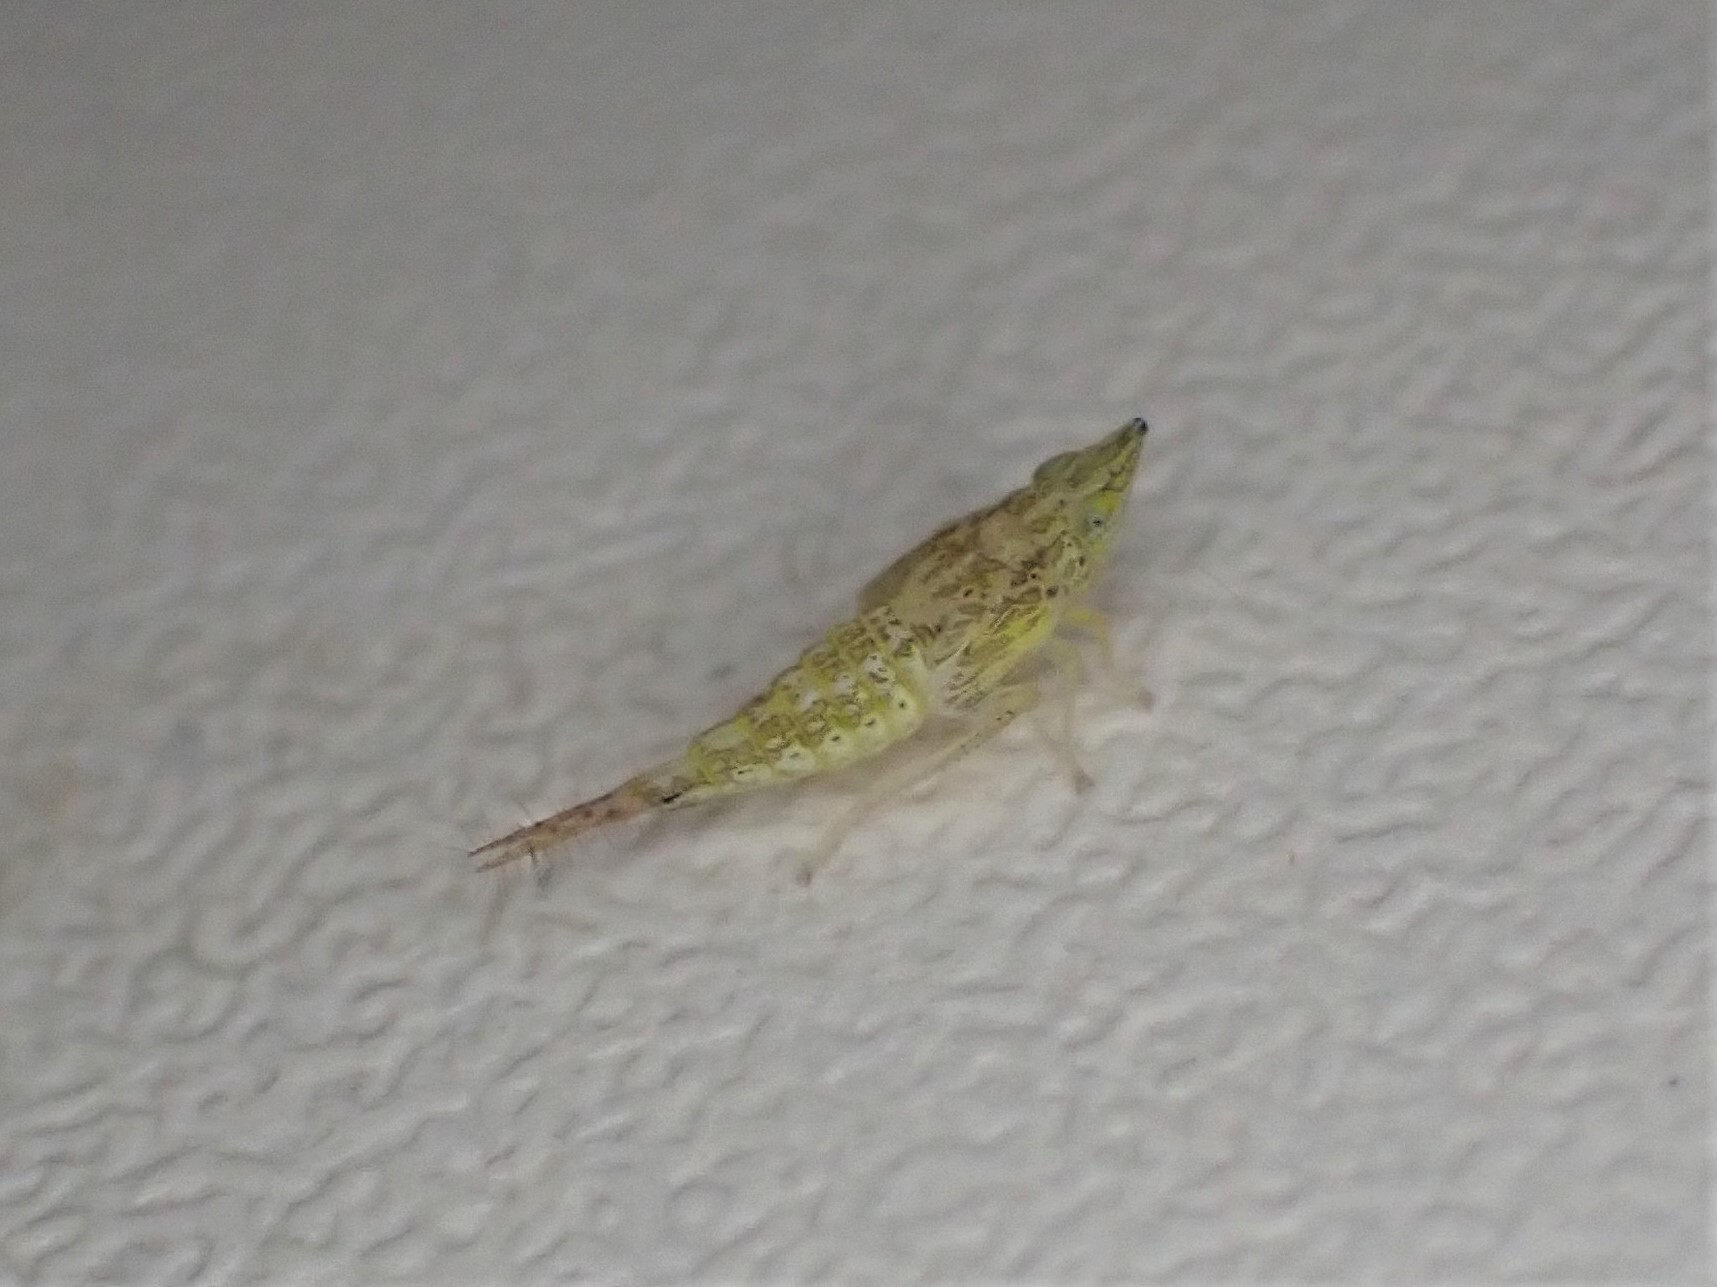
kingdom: Animalia
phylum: Arthropoda
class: Insecta
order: Hemiptera
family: Cicadellidae
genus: Japananus
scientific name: Japananus hyalinus
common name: The japanese maple leafhopper
